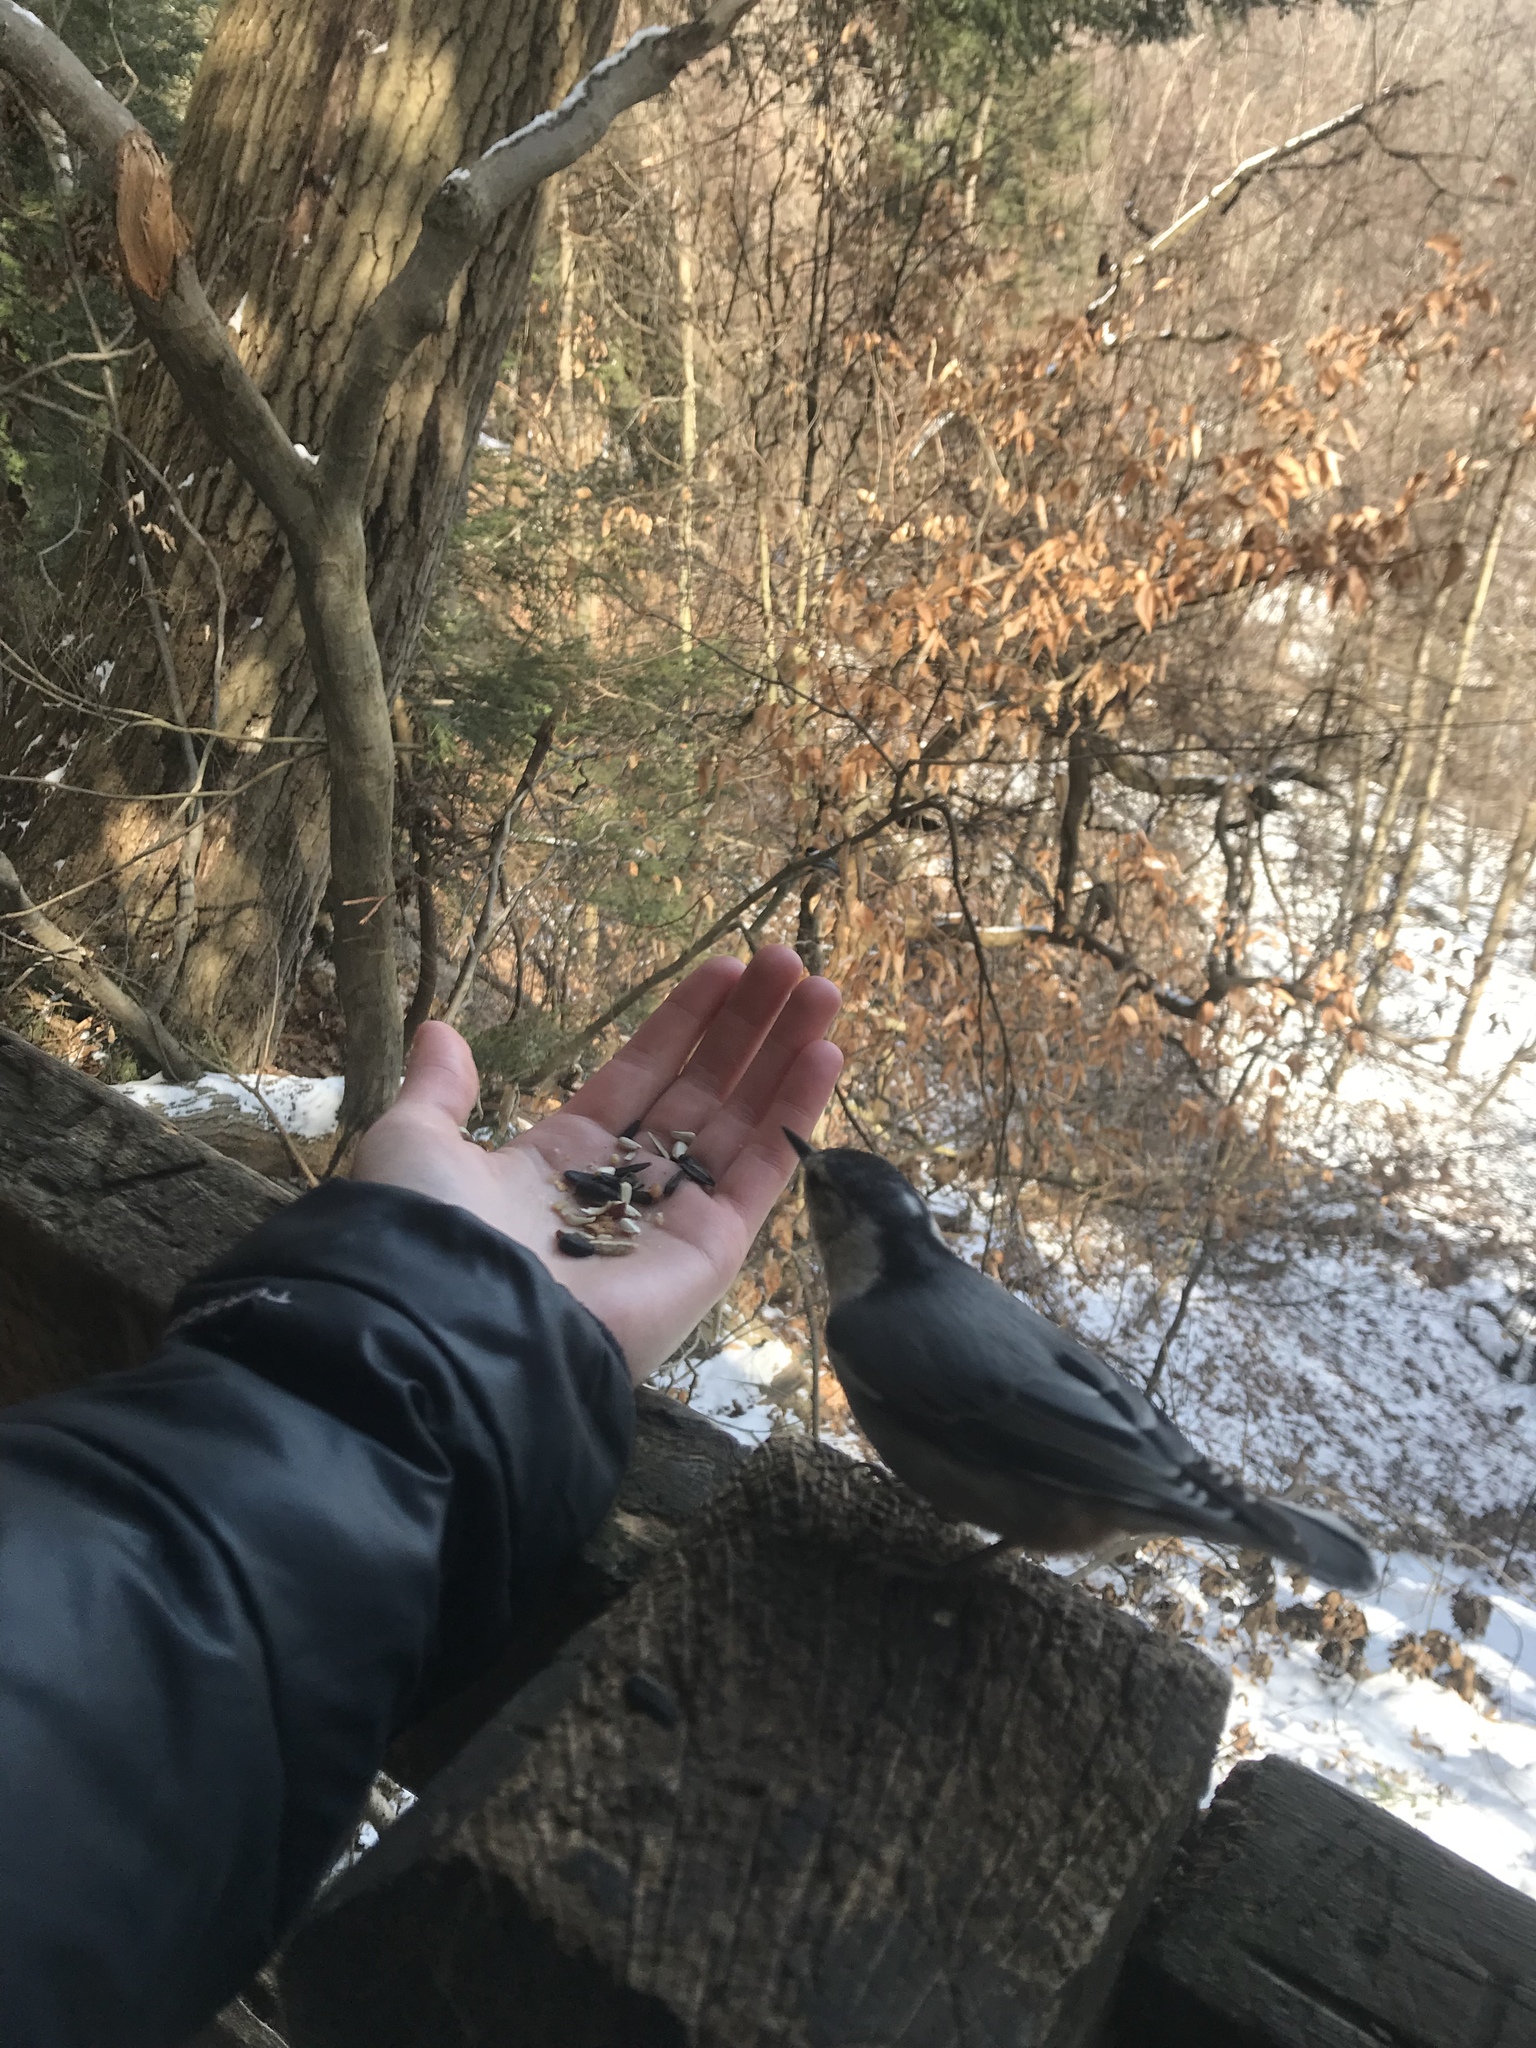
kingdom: Animalia
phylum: Chordata
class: Aves
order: Passeriformes
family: Sittidae
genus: Sitta
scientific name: Sitta carolinensis
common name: White-breasted nuthatch
